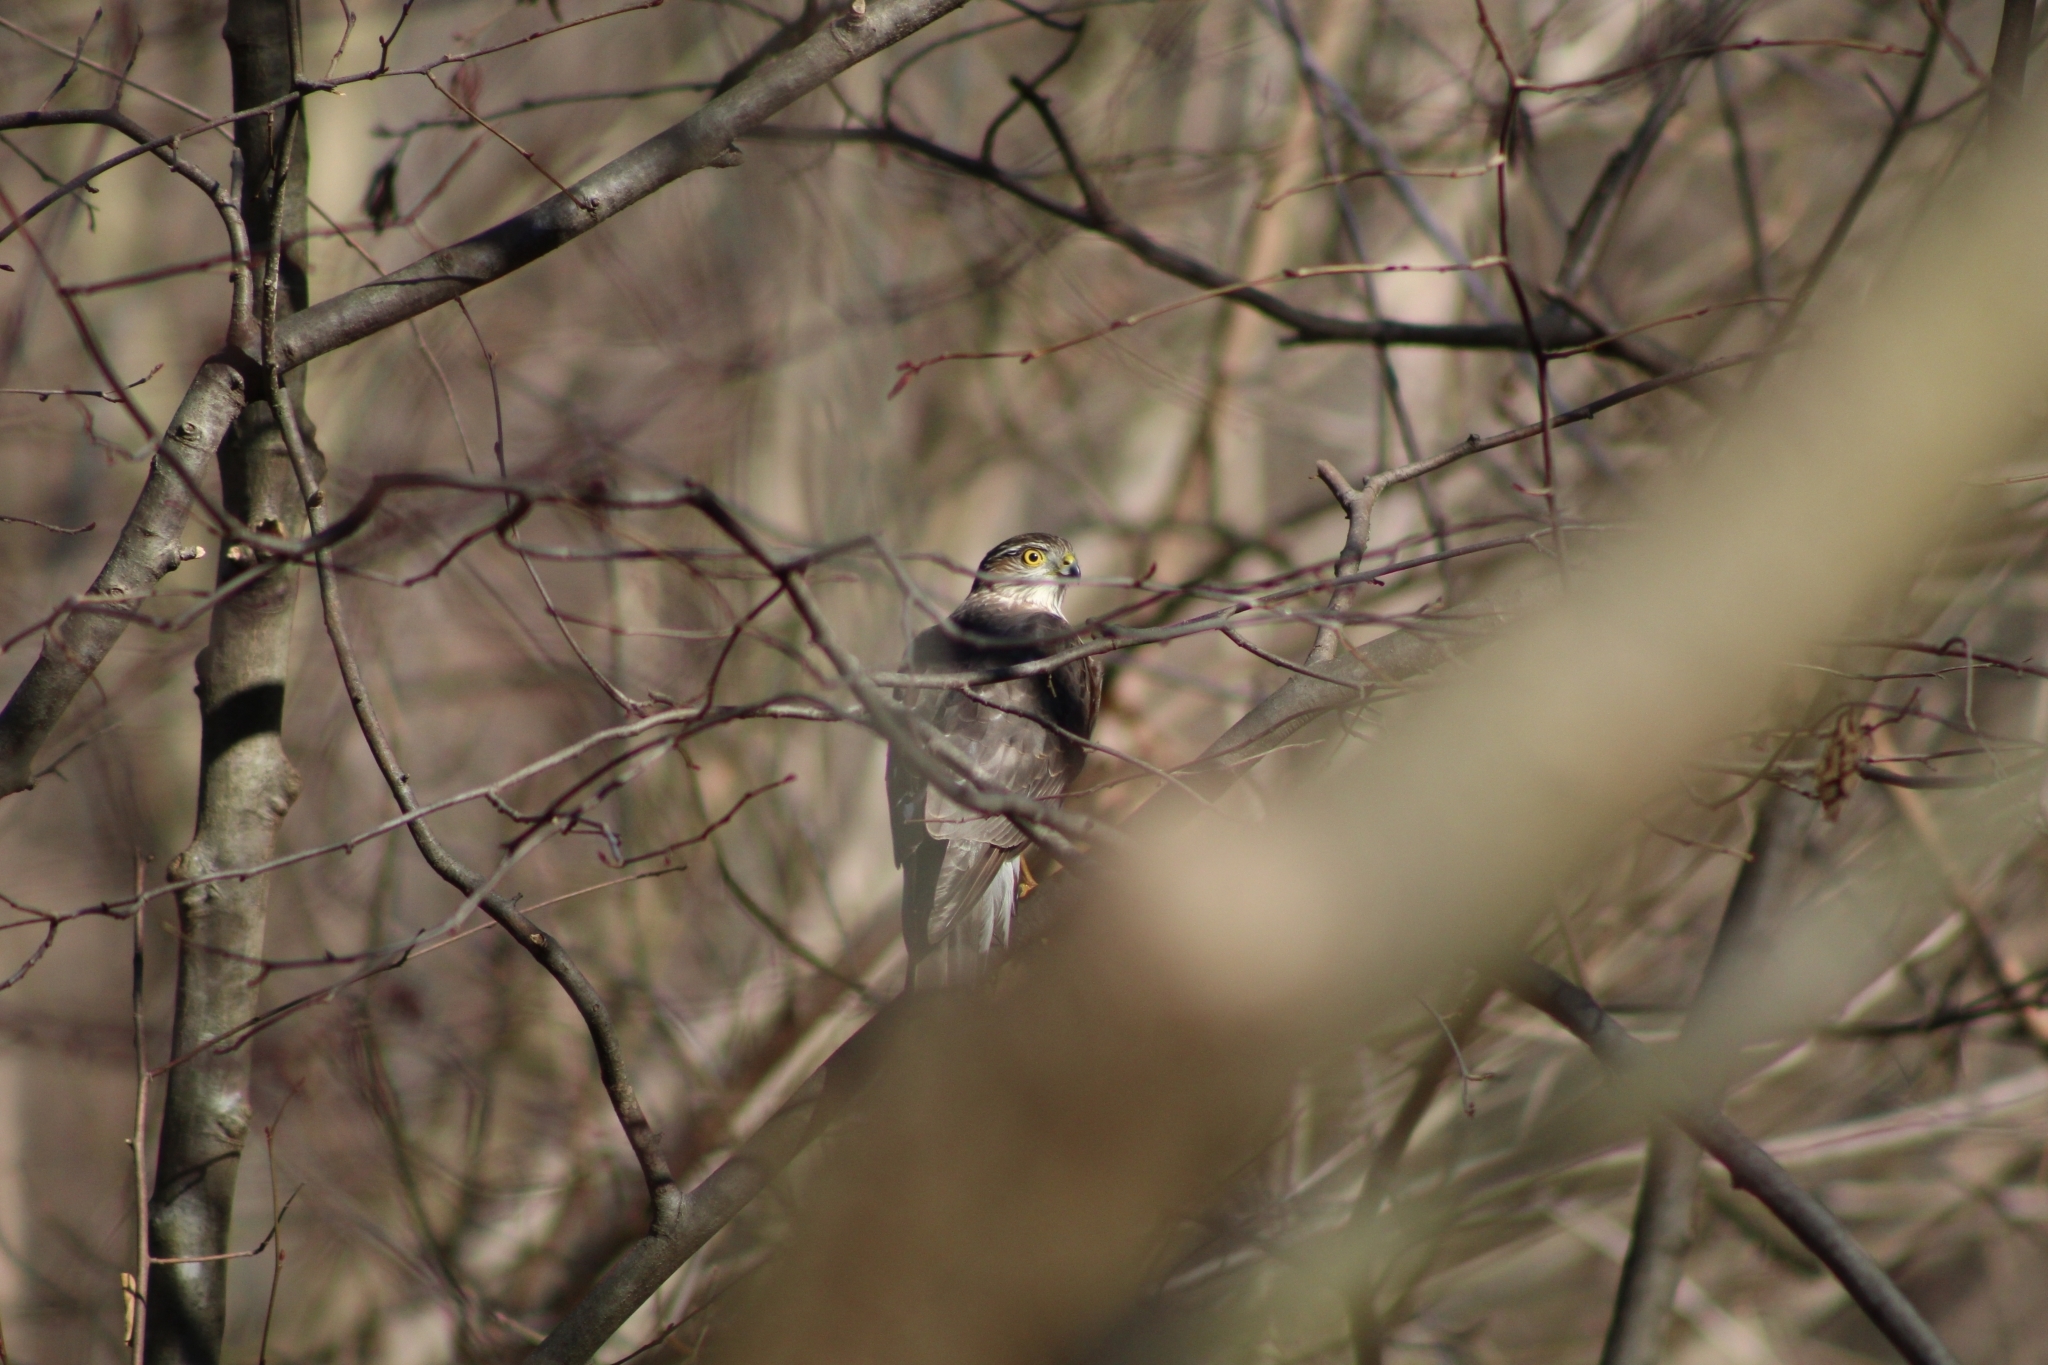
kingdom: Animalia
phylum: Chordata
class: Aves
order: Accipitriformes
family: Accipitridae
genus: Accipiter
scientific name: Accipiter striatus
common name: Sharp-shinned hawk
